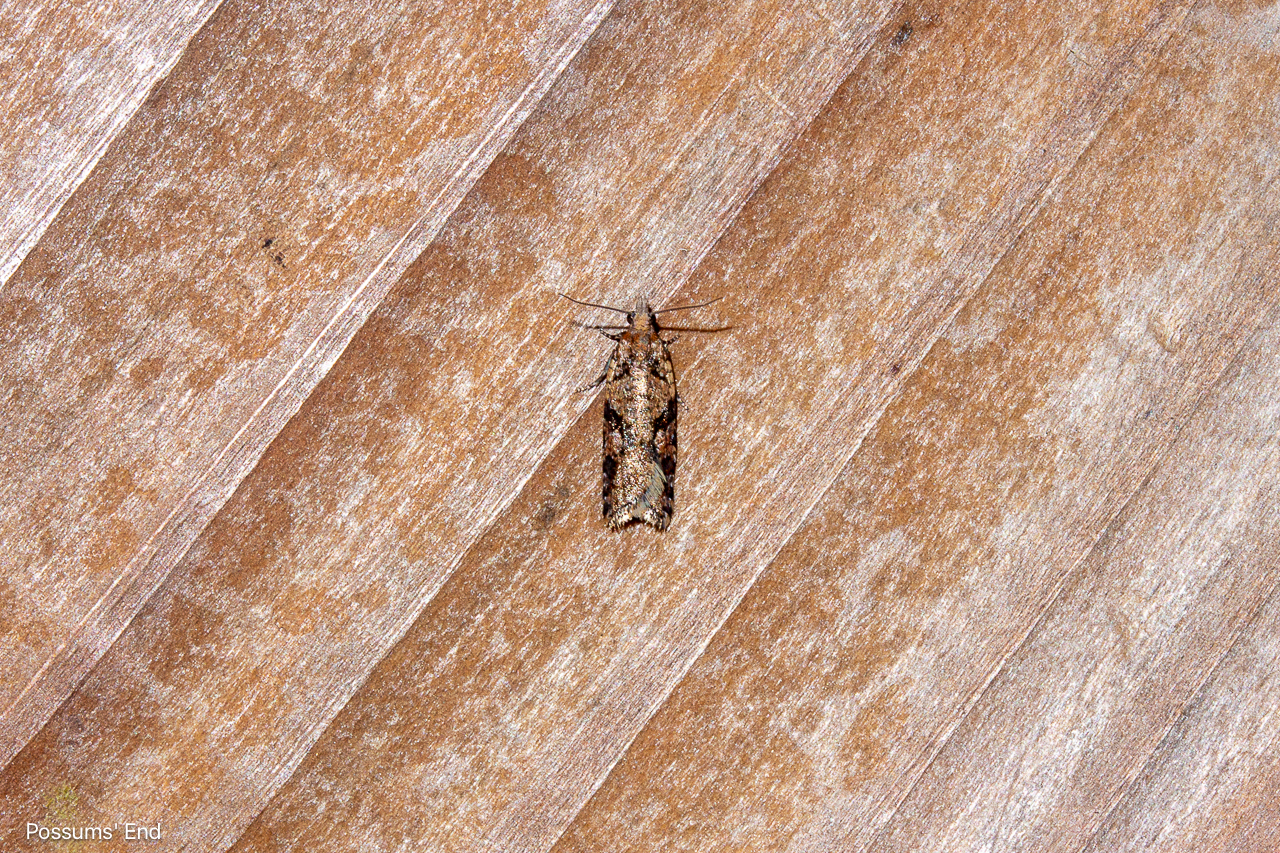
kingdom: Animalia
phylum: Arthropoda
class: Insecta
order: Lepidoptera
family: Tortricidae
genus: Capua
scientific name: Capua semiferana
